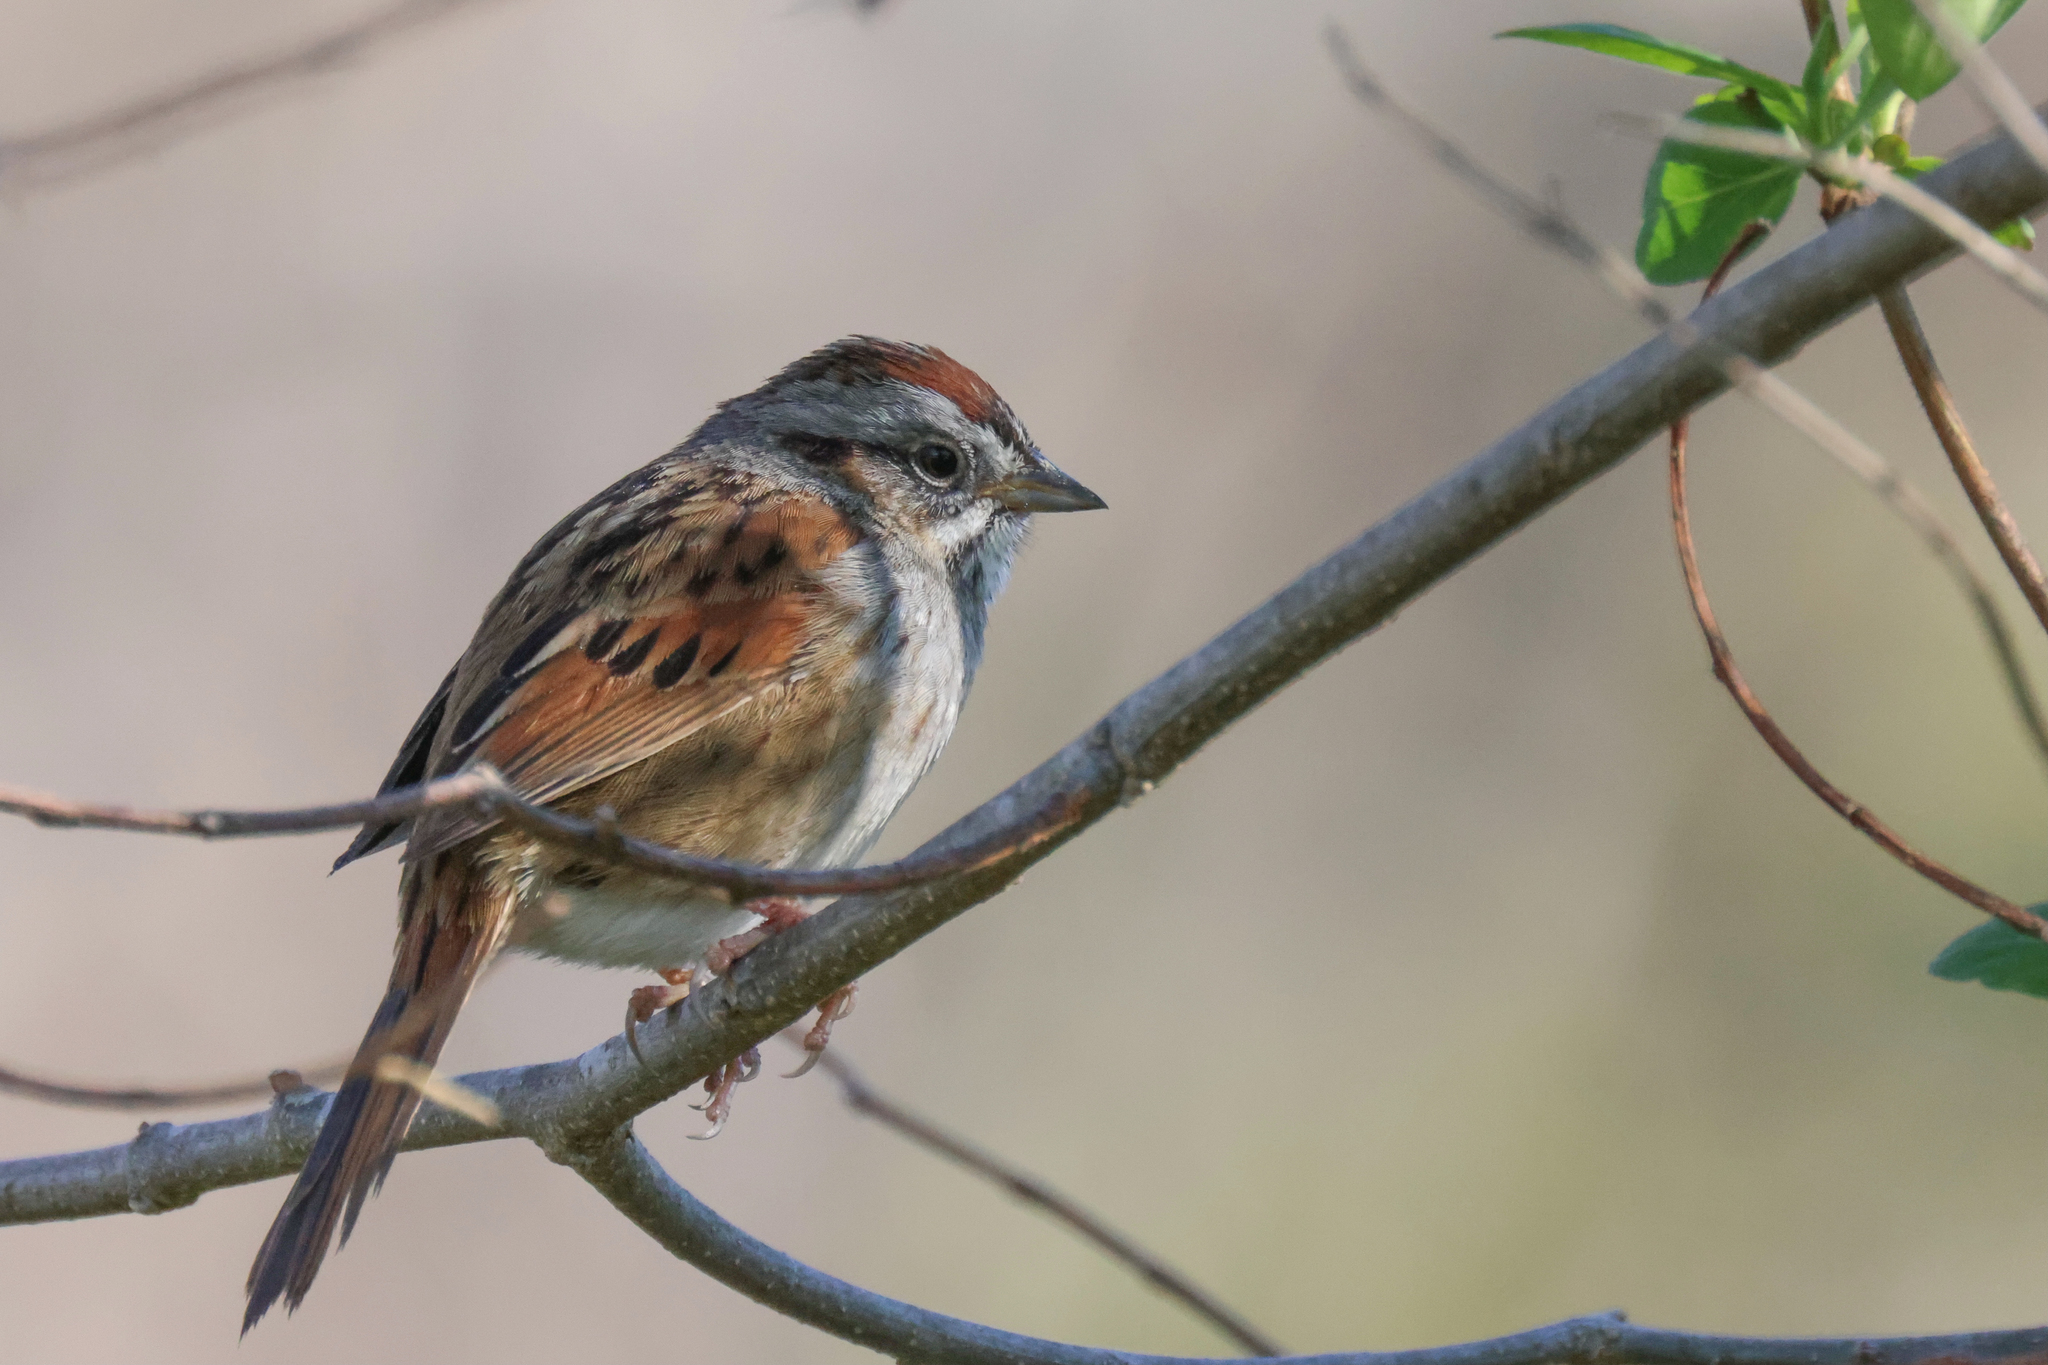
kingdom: Animalia
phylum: Chordata
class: Aves
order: Passeriformes
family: Passerellidae
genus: Melospiza
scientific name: Melospiza georgiana
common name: Swamp sparrow
